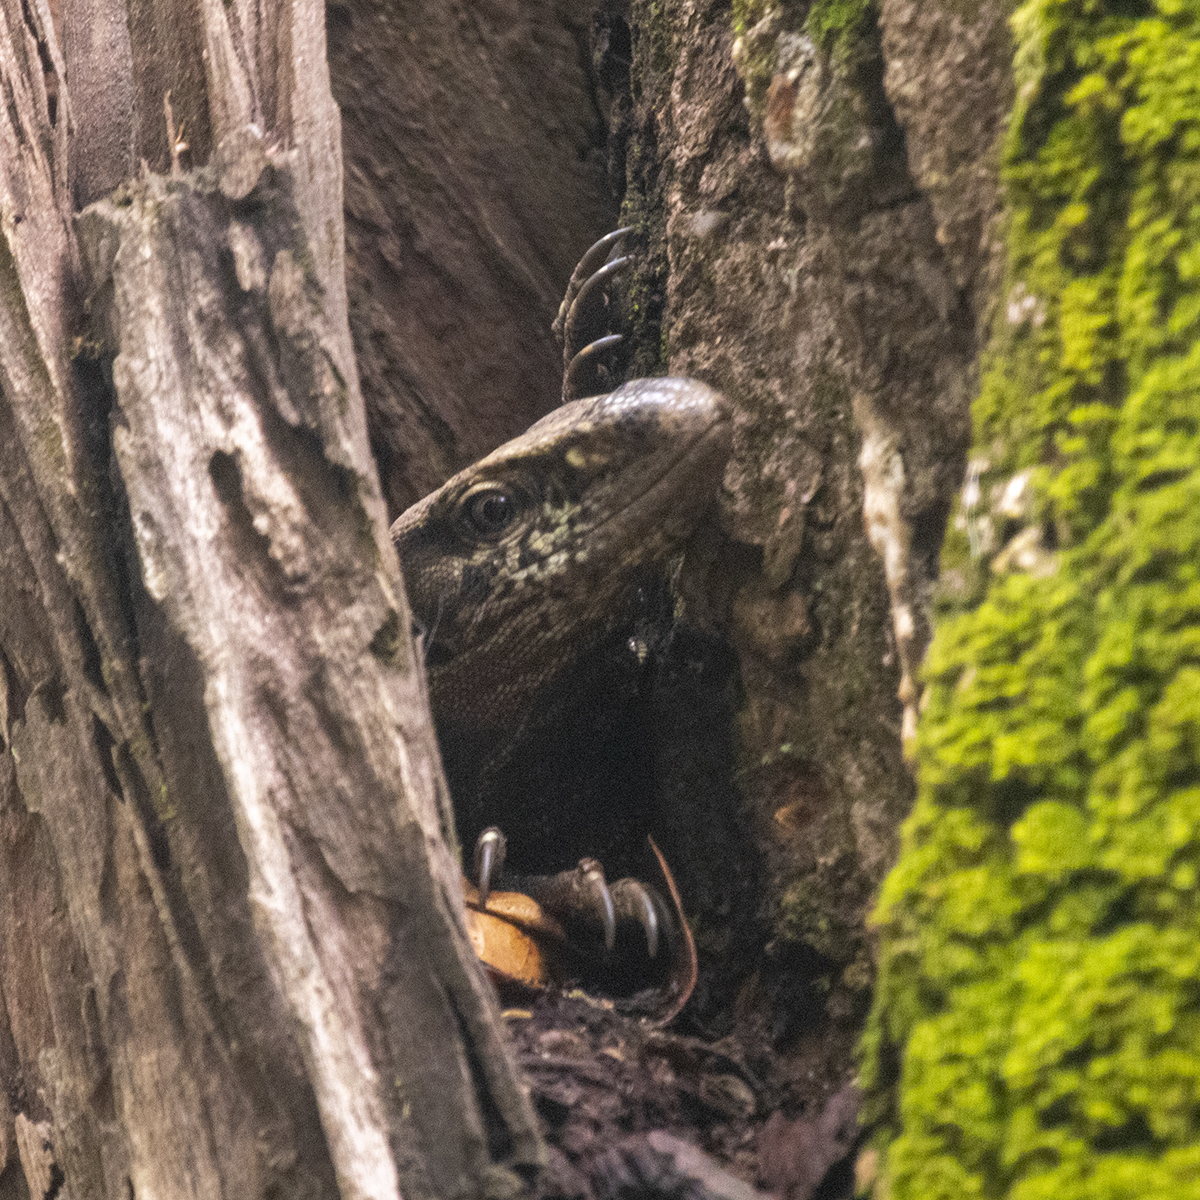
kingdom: Animalia
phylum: Chordata
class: Squamata
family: Varanidae
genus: Varanus
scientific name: Varanus bengalensis
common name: Bengal monitor
